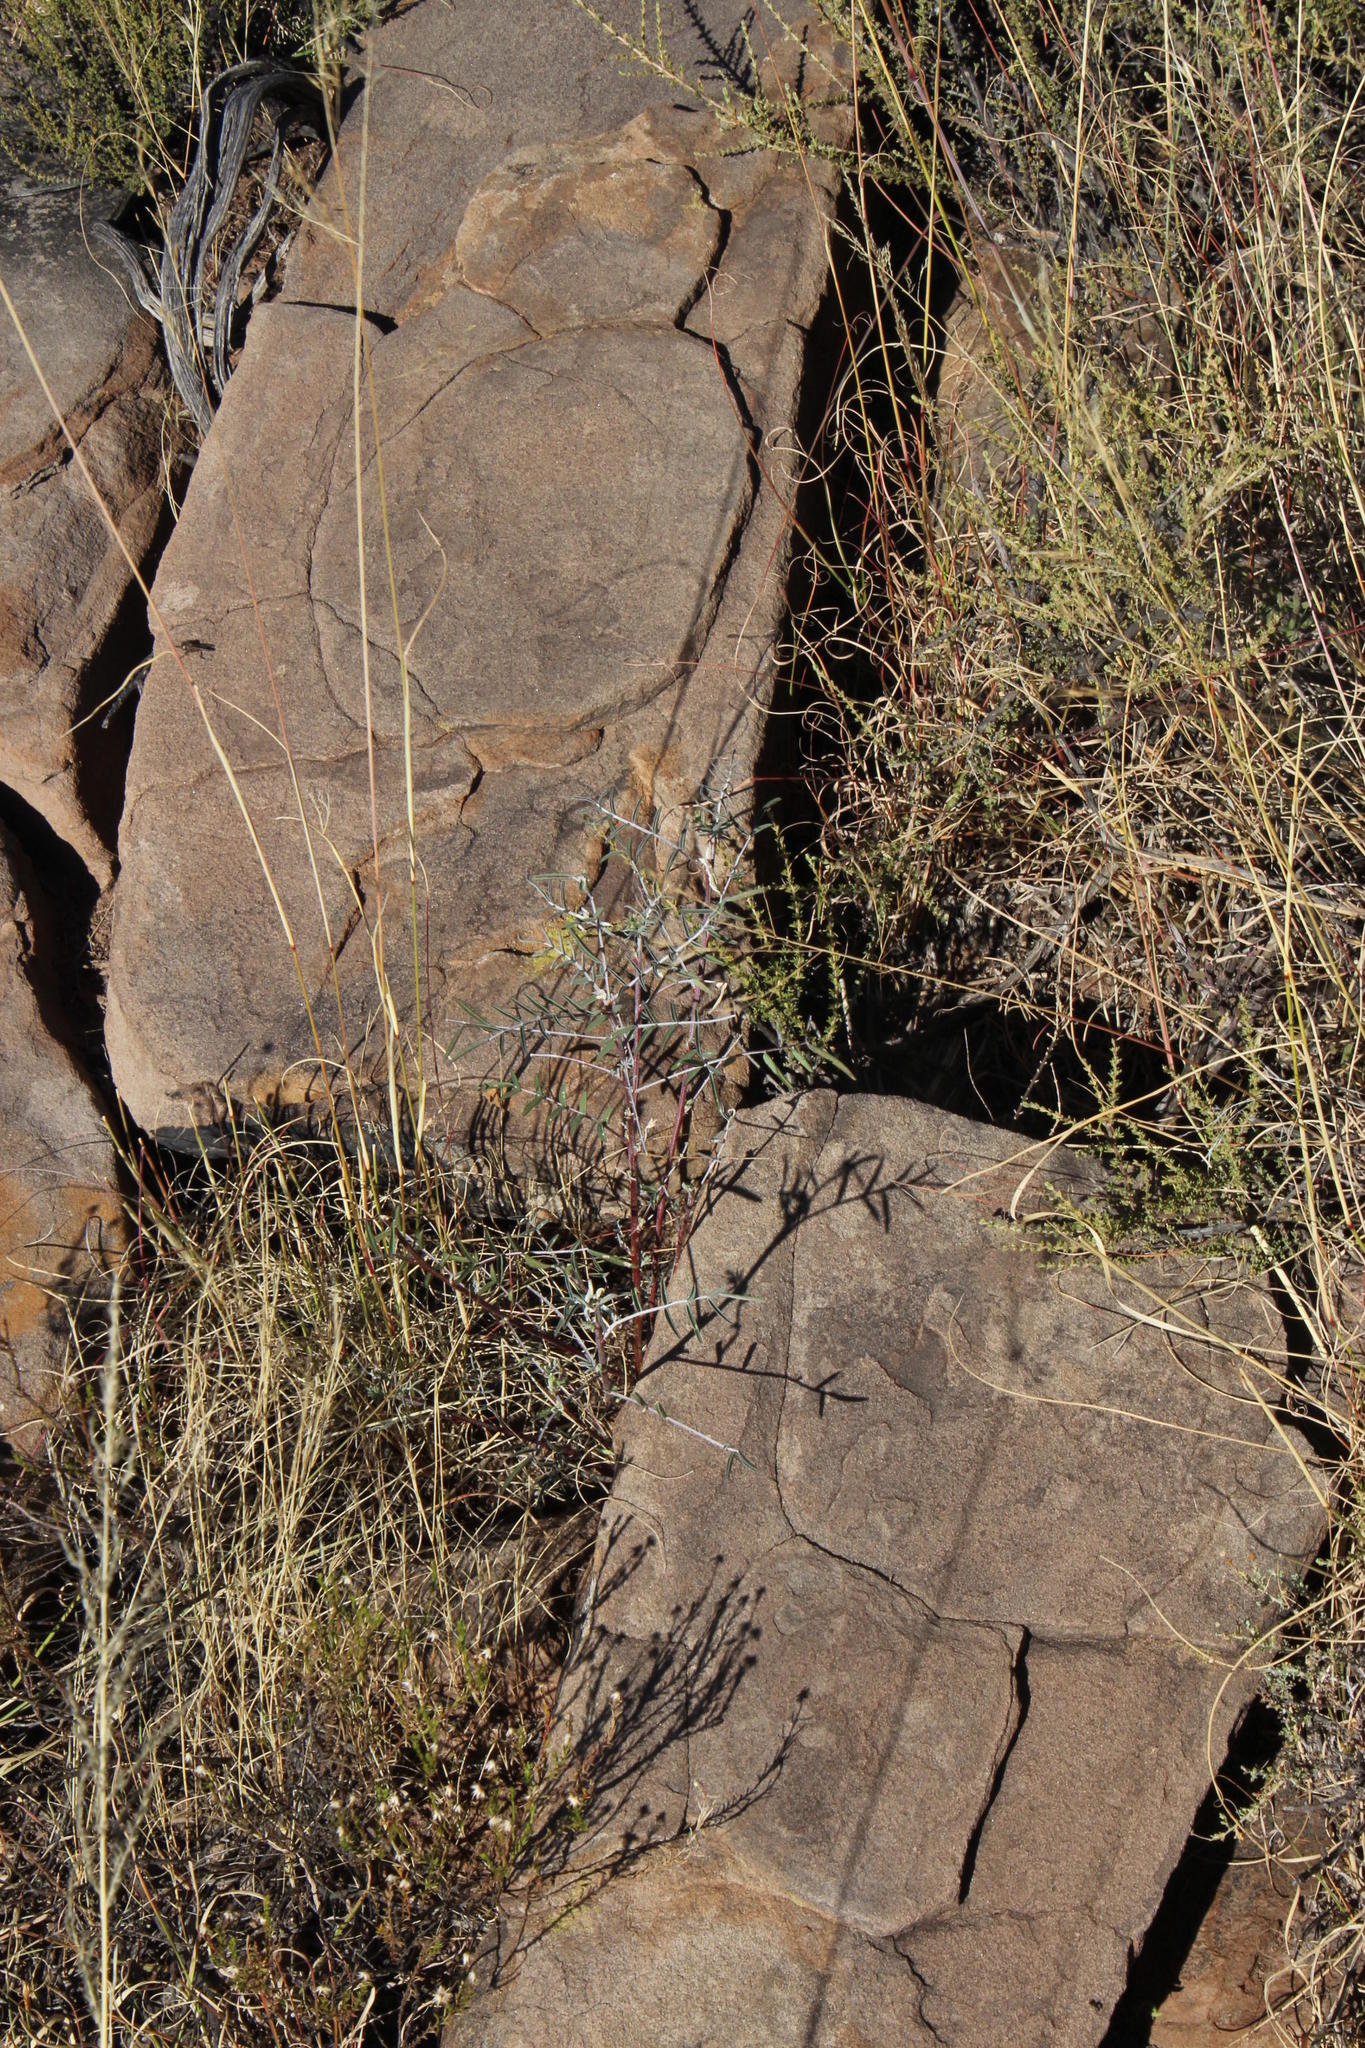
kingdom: Plantae
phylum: Tracheophyta
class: Magnoliopsida
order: Fabales
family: Fabaceae
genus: Lessertia
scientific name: Lessertia frutescens
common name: Balloon-pea
